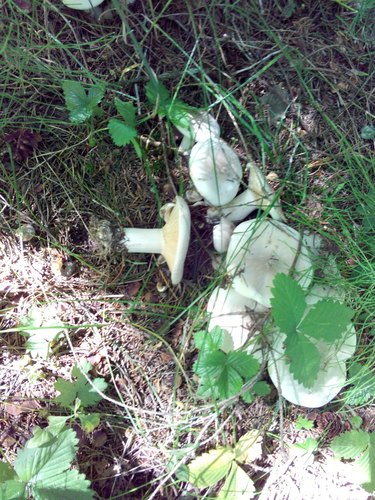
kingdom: Fungi
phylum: Basidiomycota
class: Agaricomycetes
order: Agaricales
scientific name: Agaricales
